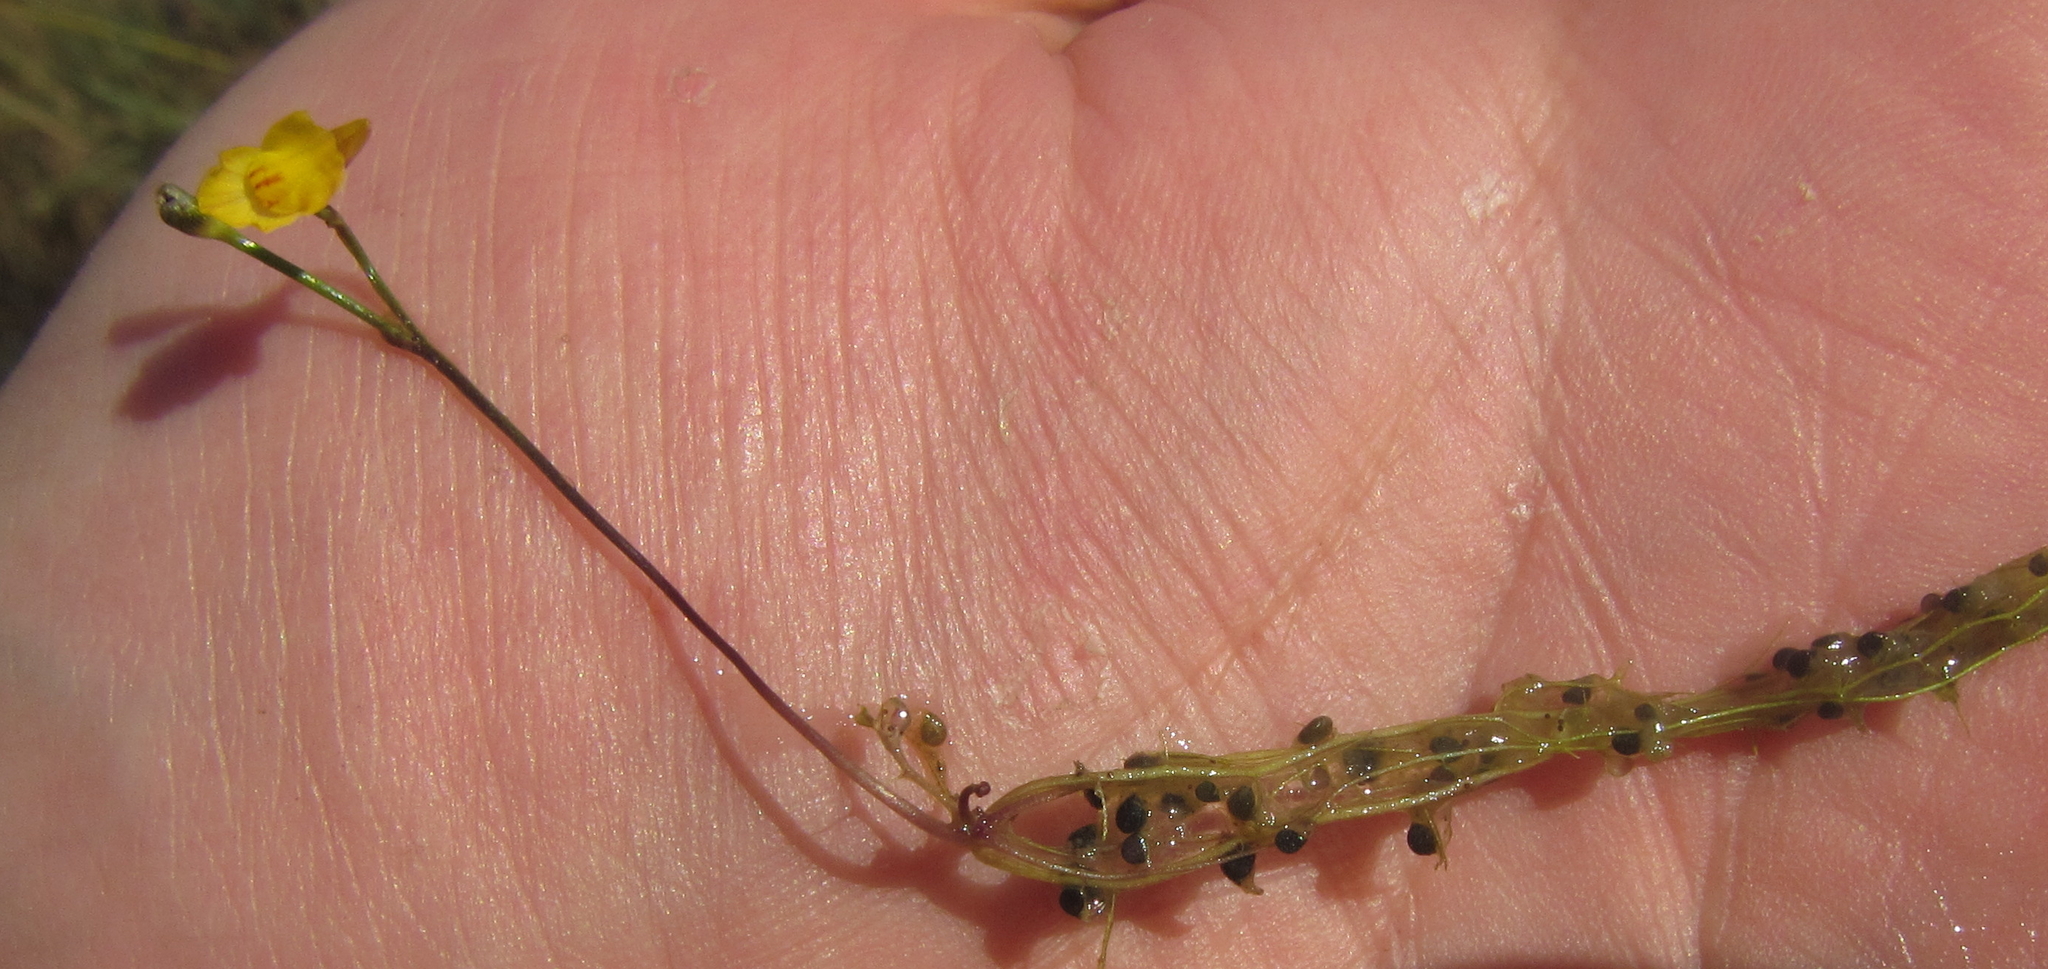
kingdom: Plantae
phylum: Tracheophyta
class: Magnoliopsida
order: Lamiales
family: Lentibulariaceae
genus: Utricularia
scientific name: Utricularia gibba
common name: Humped bladderwort
